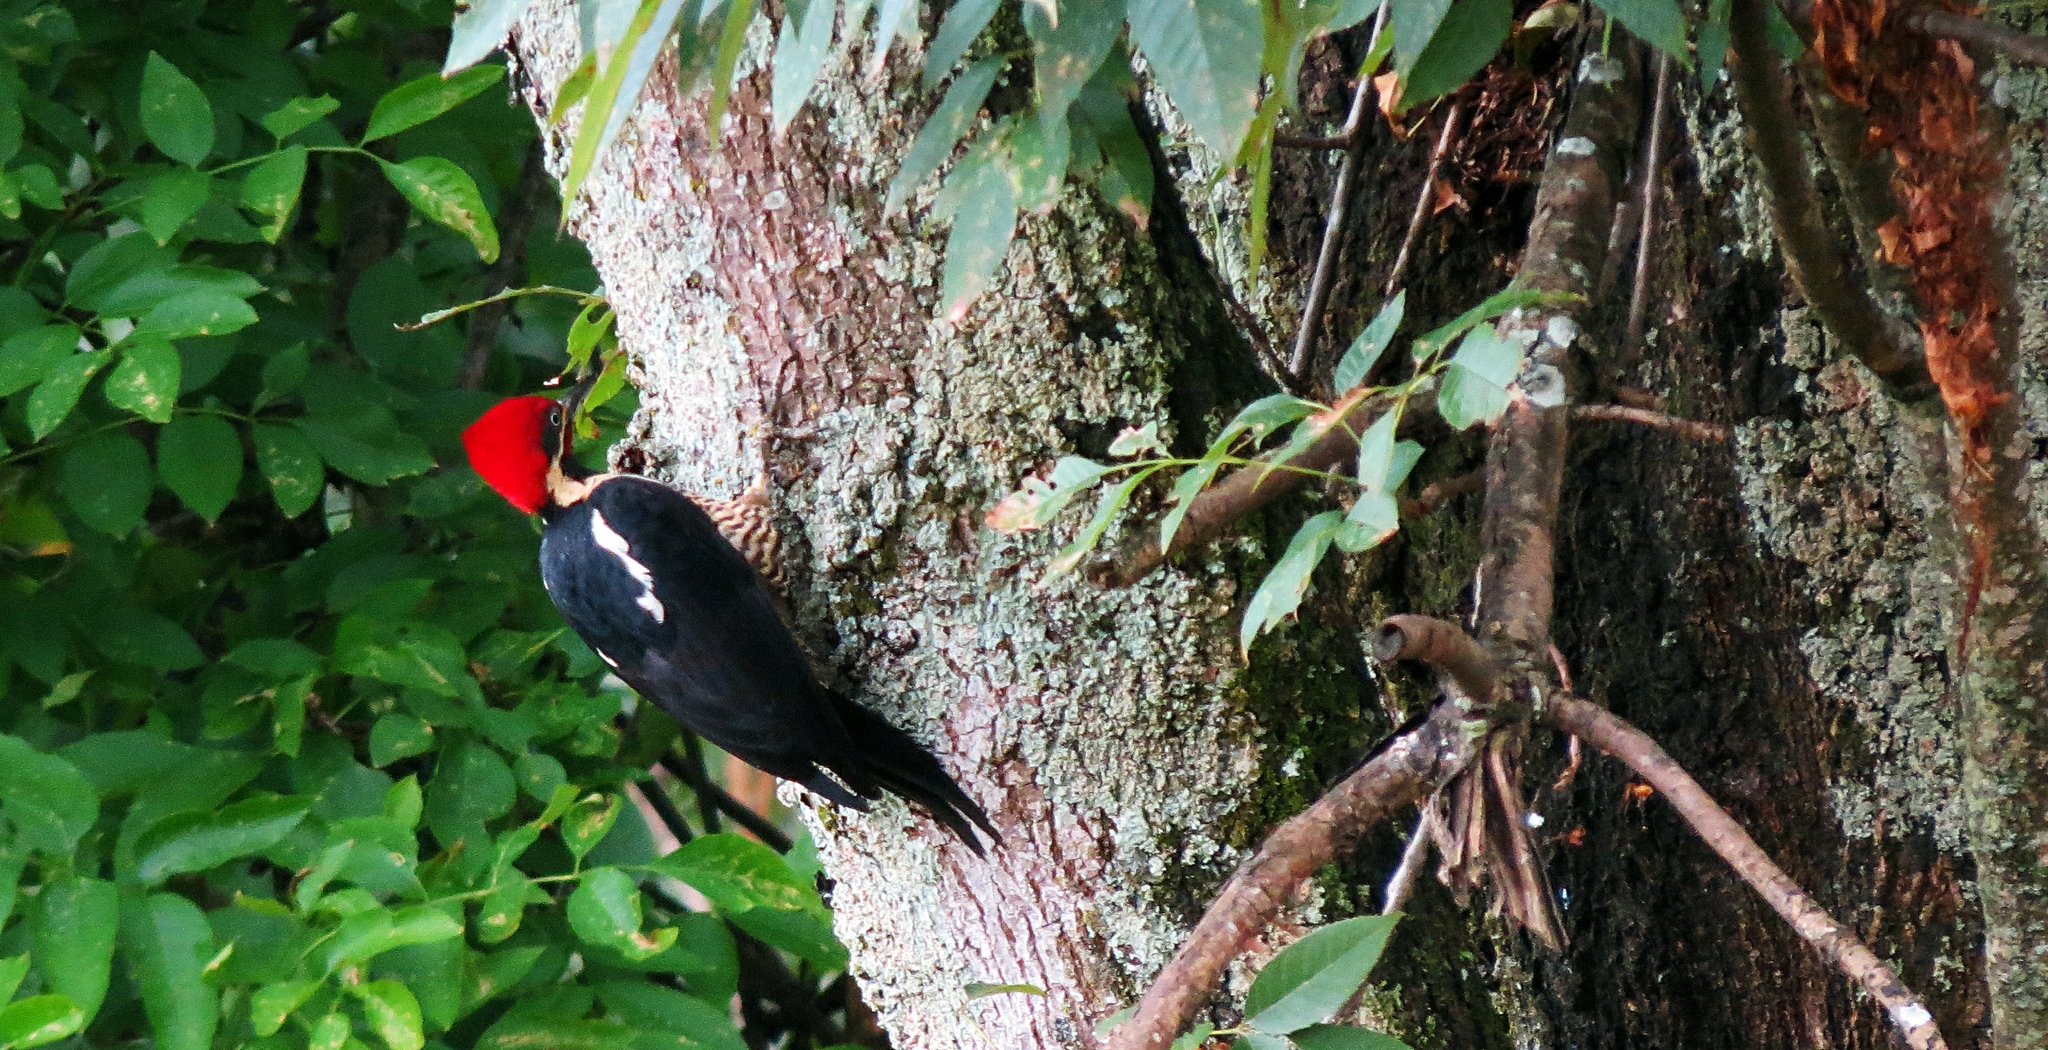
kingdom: Animalia
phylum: Chordata
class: Aves
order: Piciformes
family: Picidae
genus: Dryocopus
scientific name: Dryocopus lineatus
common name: Lineated woodpecker
